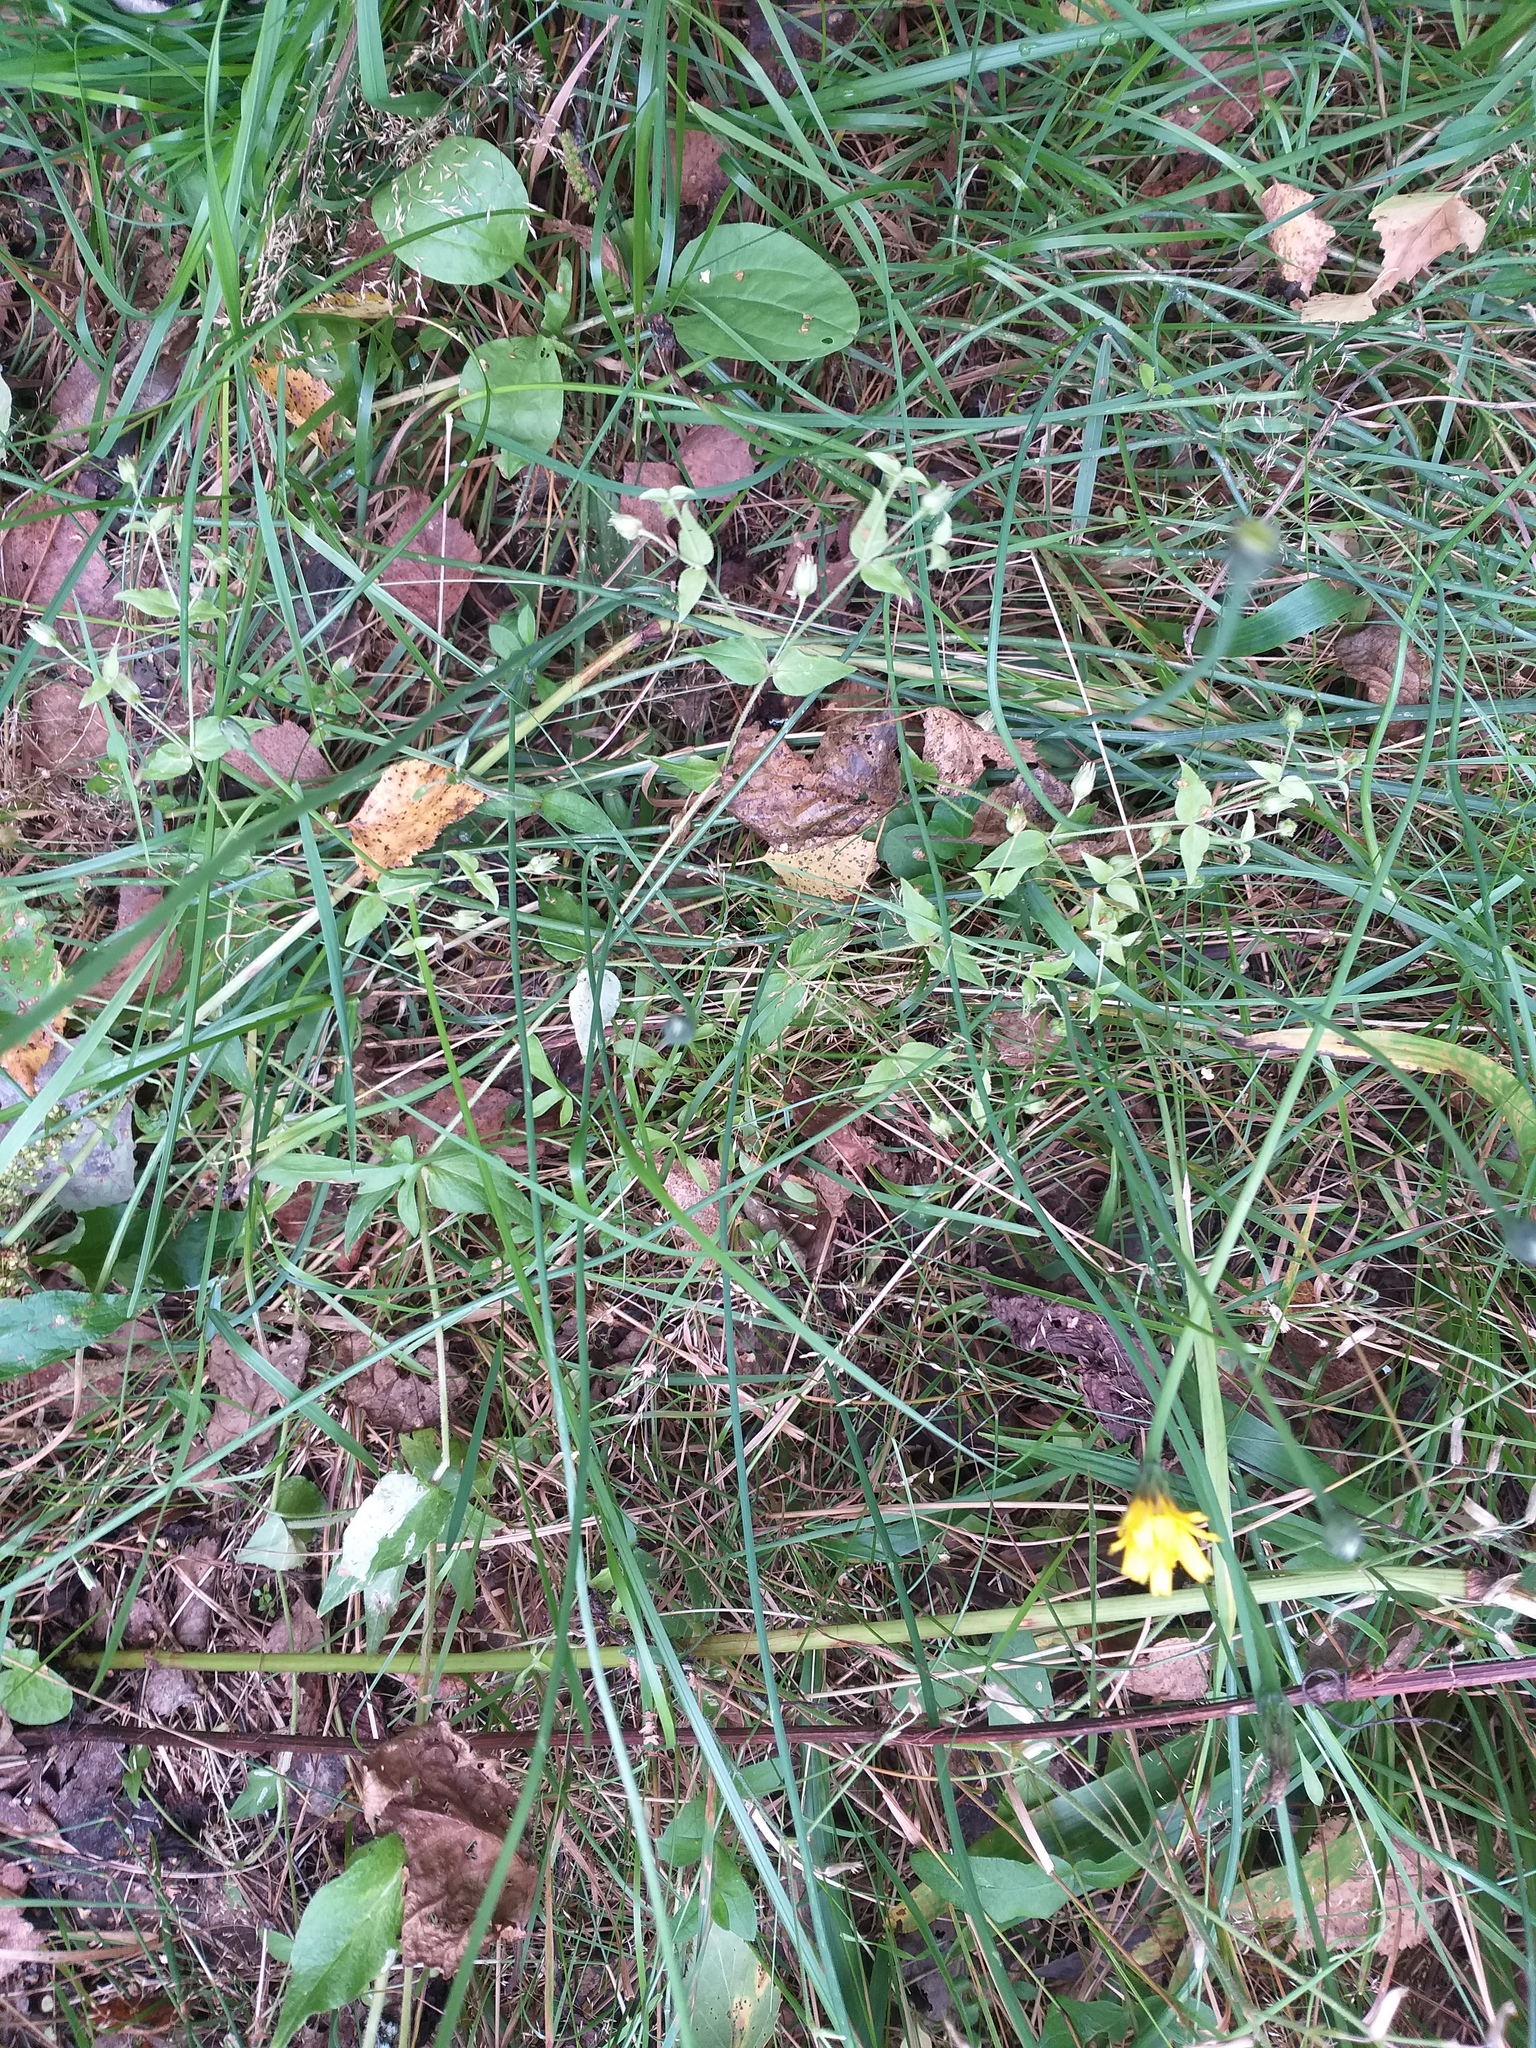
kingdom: Plantae
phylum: Tracheophyta
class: Magnoliopsida
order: Asterales
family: Asteraceae
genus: Hypochaeris
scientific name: Hypochaeris radicata
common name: Flatweed
